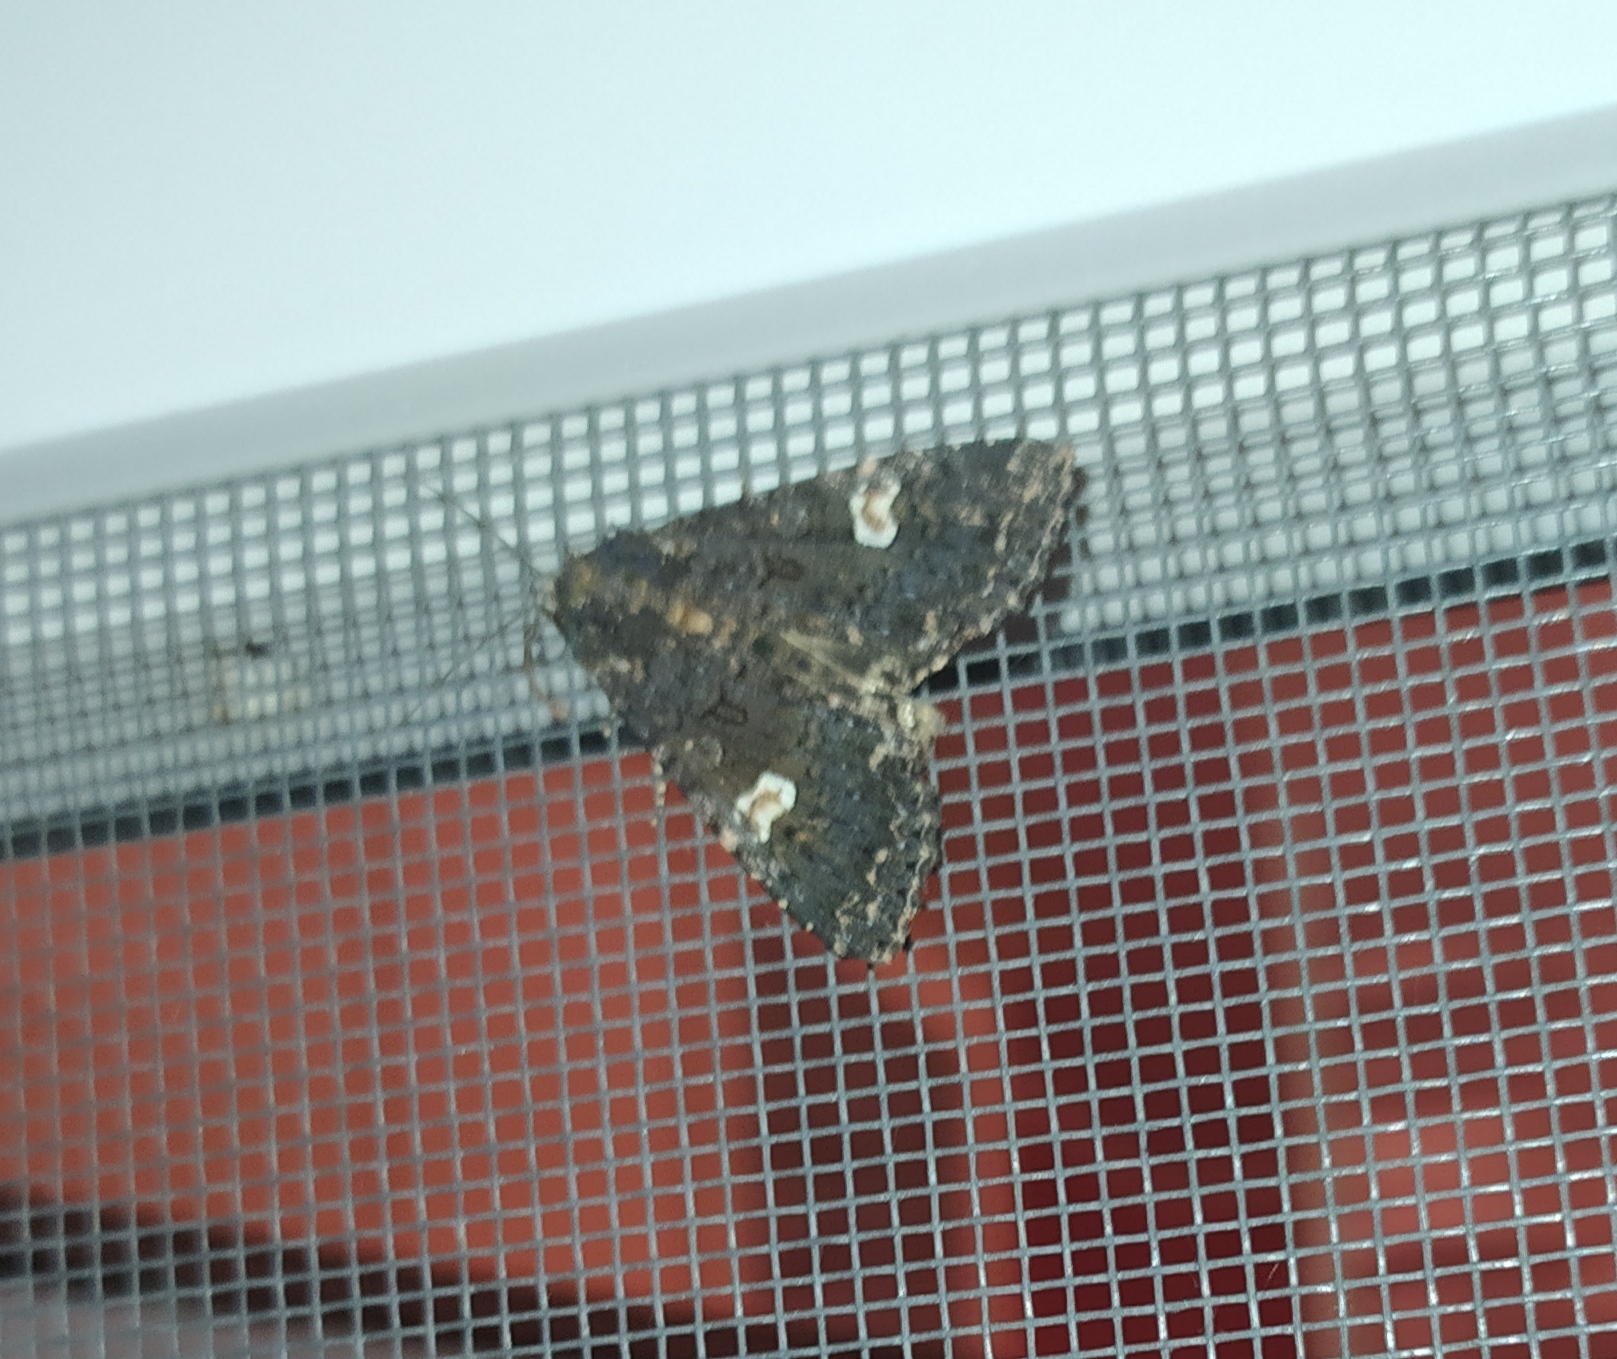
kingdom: Animalia
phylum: Arthropoda
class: Insecta
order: Lepidoptera
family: Noctuidae
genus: Melanchra
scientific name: Melanchra persicariae
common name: Dot moth
